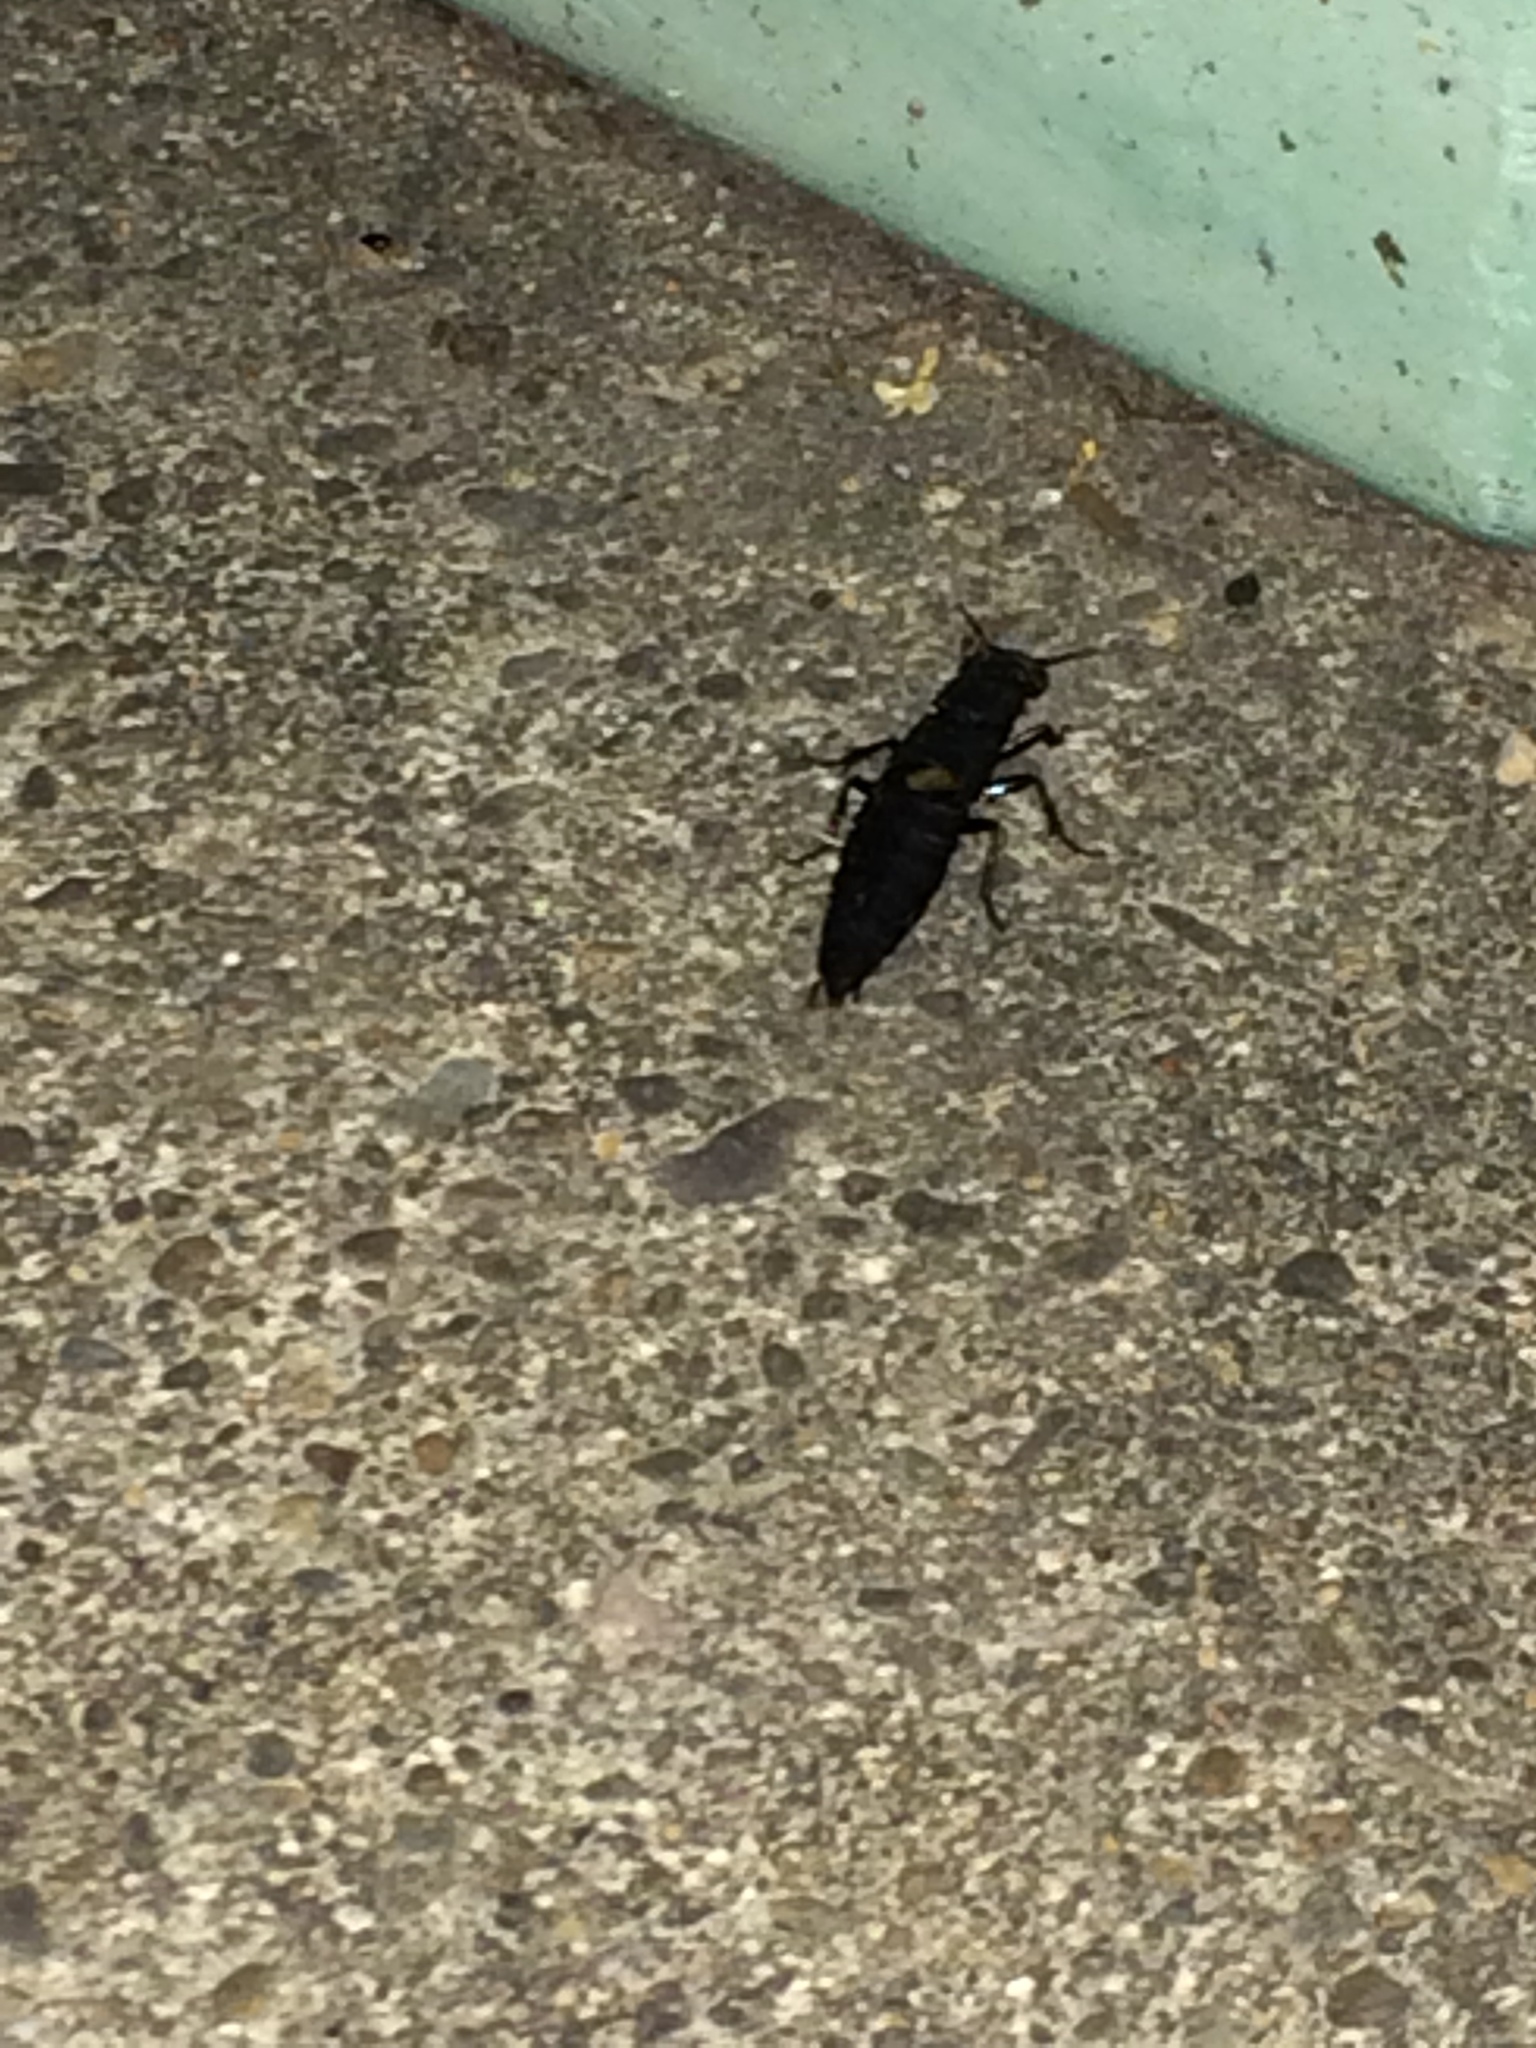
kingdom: Animalia
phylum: Arthropoda
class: Insecta
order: Coleoptera
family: Staphylinidae
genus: Ocypus
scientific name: Ocypus olens
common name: Devil's coach-horse
